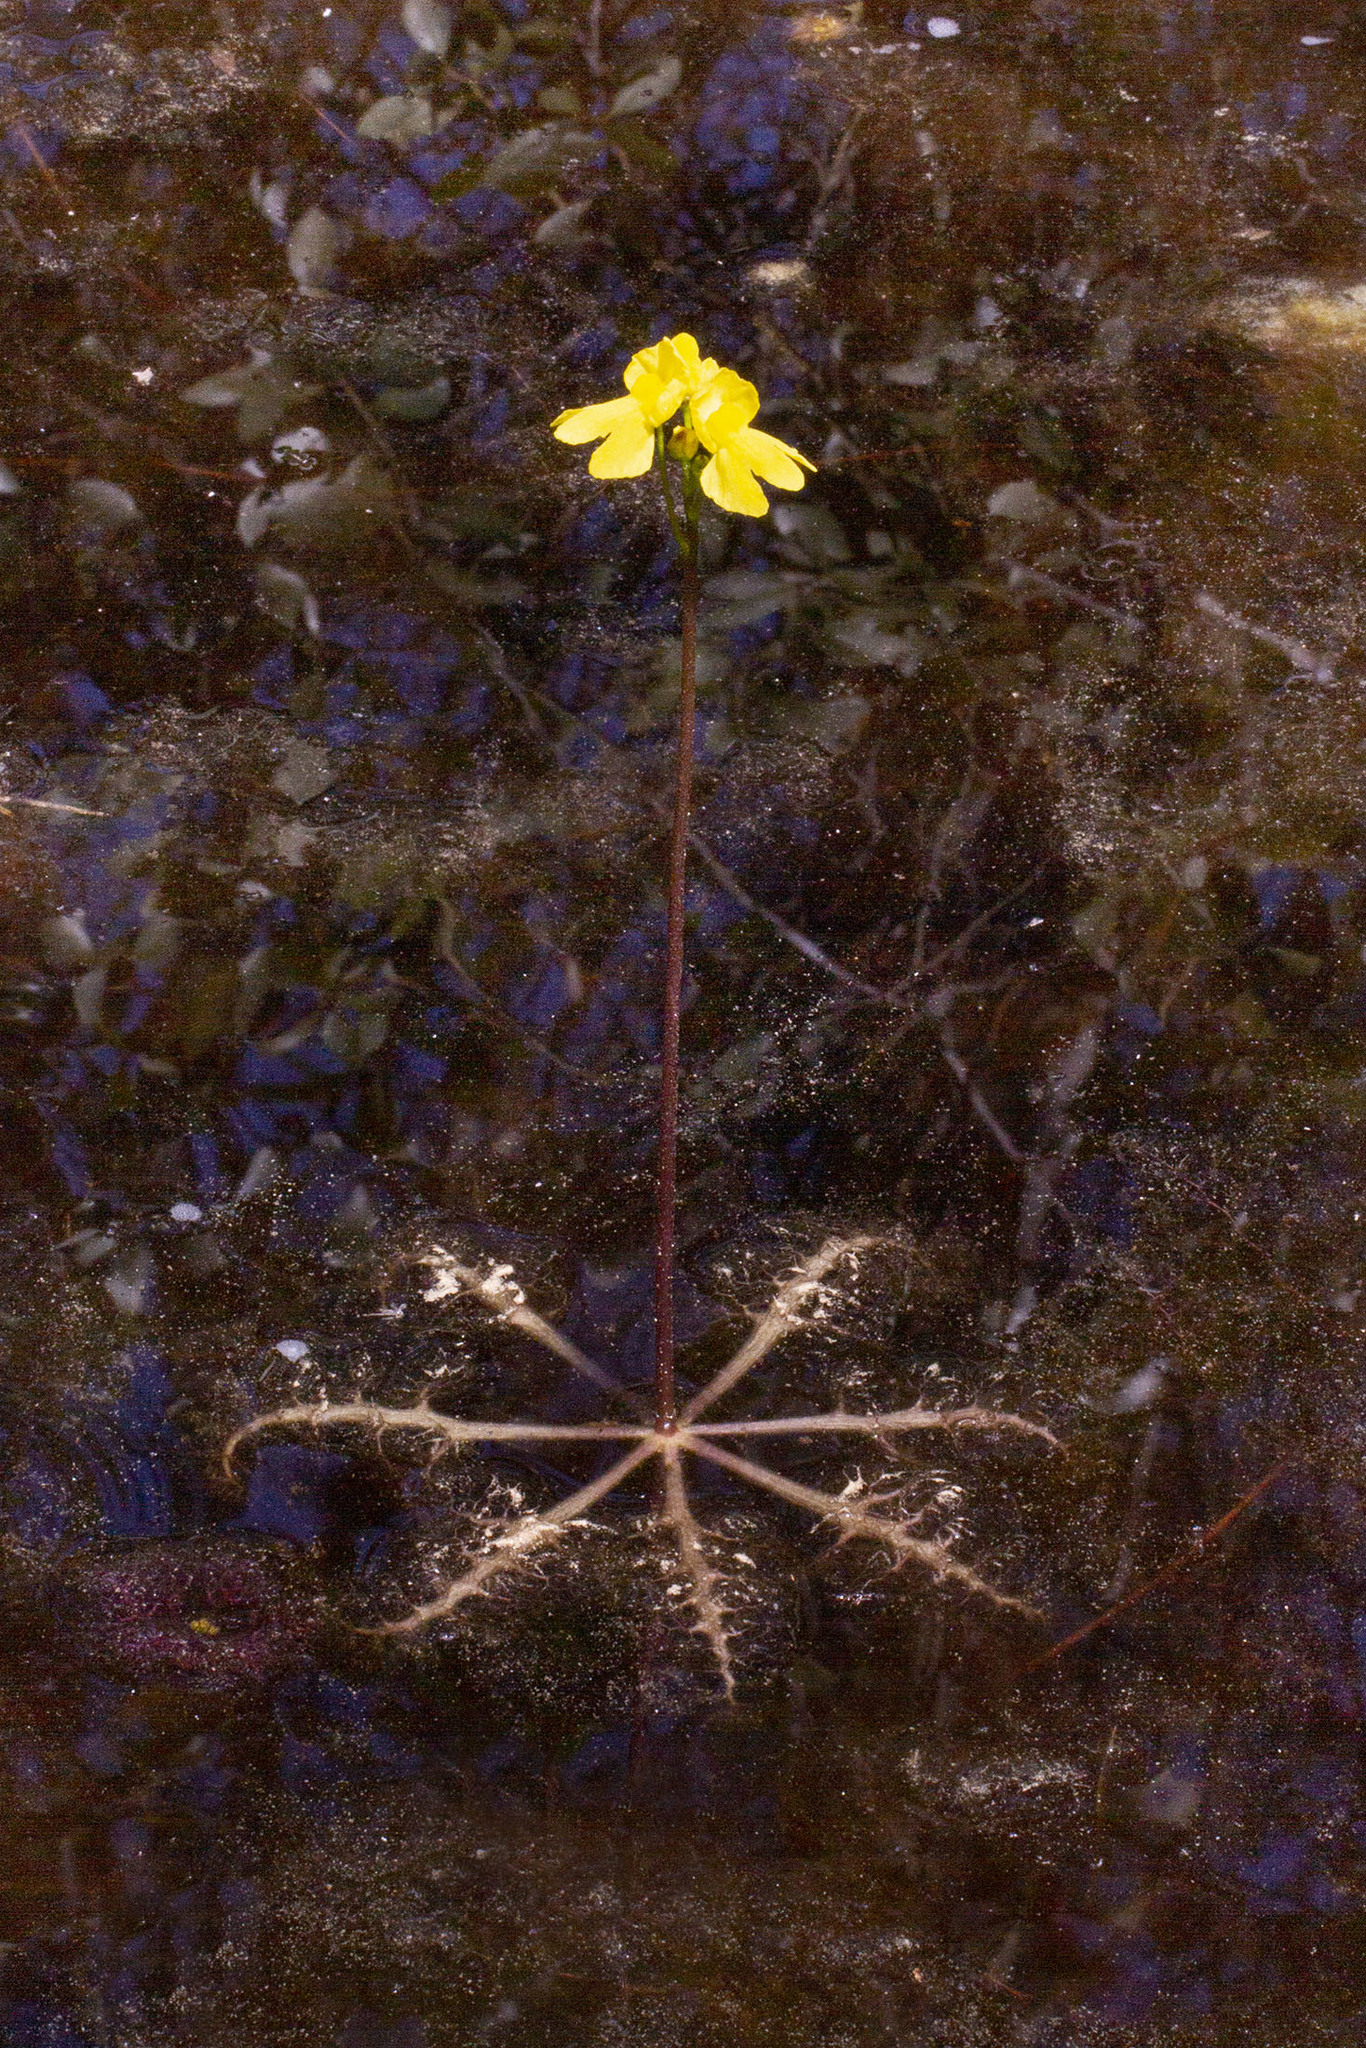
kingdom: Plantae
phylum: Tracheophyta
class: Magnoliopsida
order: Lamiales
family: Lentibulariaceae
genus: Utricularia
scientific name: Utricularia inflata
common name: Floating bladderwort
